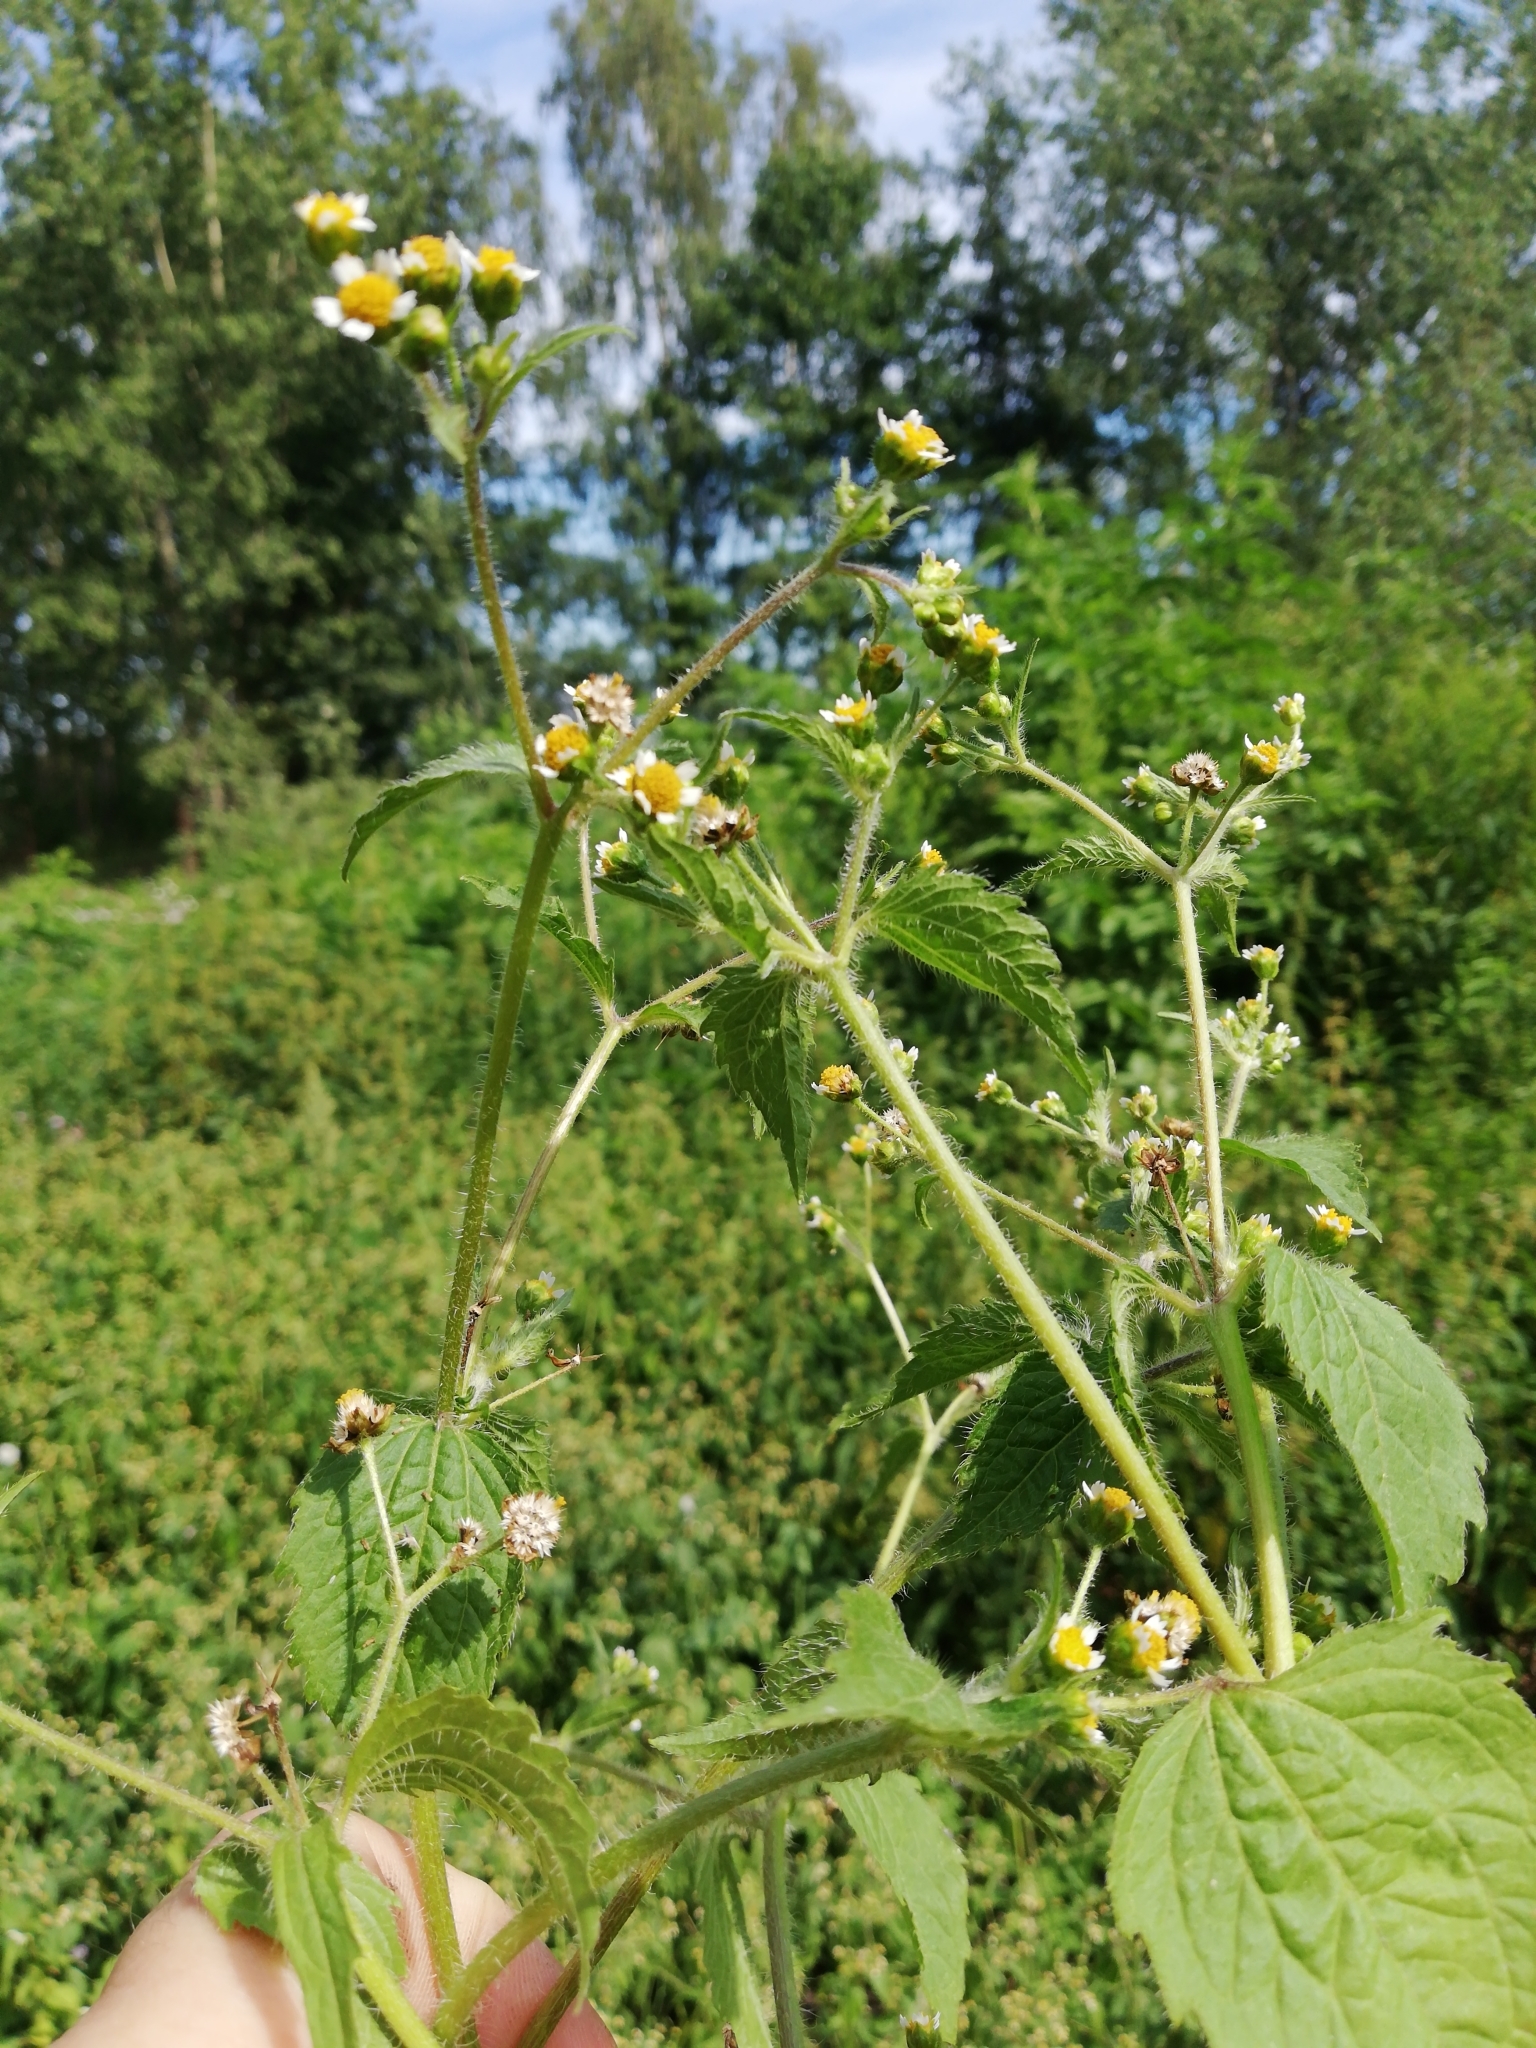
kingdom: Plantae
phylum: Tracheophyta
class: Magnoliopsida
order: Asterales
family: Asteraceae
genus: Galinsoga
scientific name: Galinsoga quadriradiata
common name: Shaggy soldier
